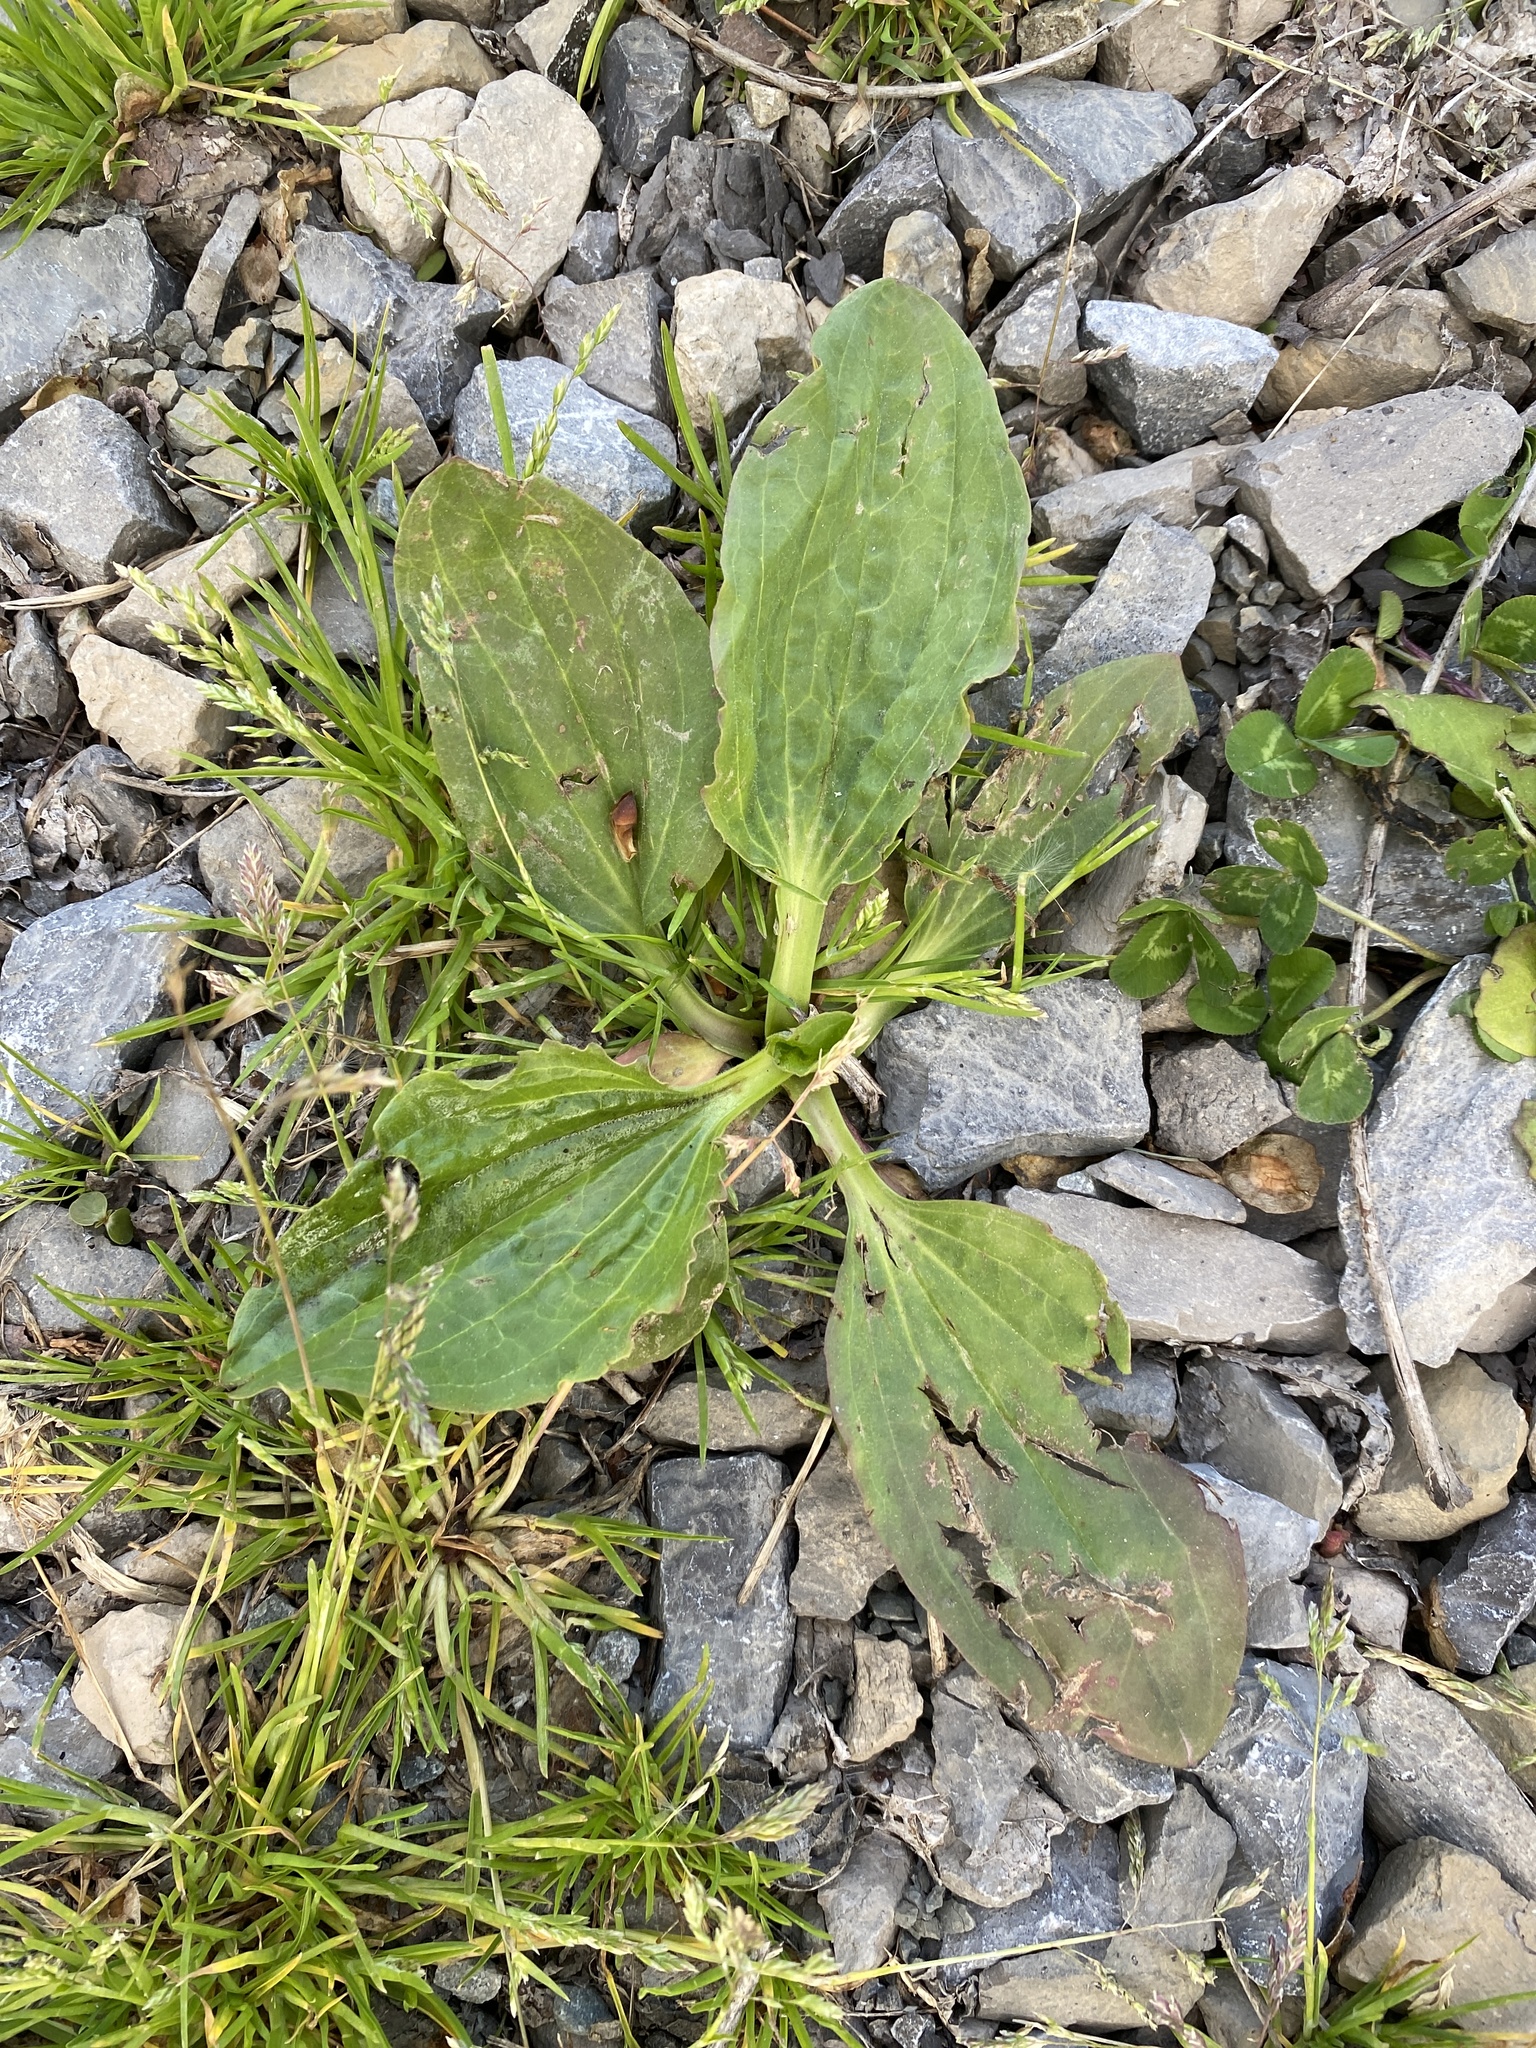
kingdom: Plantae
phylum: Tracheophyta
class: Magnoliopsida
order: Lamiales
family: Plantaginaceae
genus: Plantago
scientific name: Plantago major
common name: Common plantain
